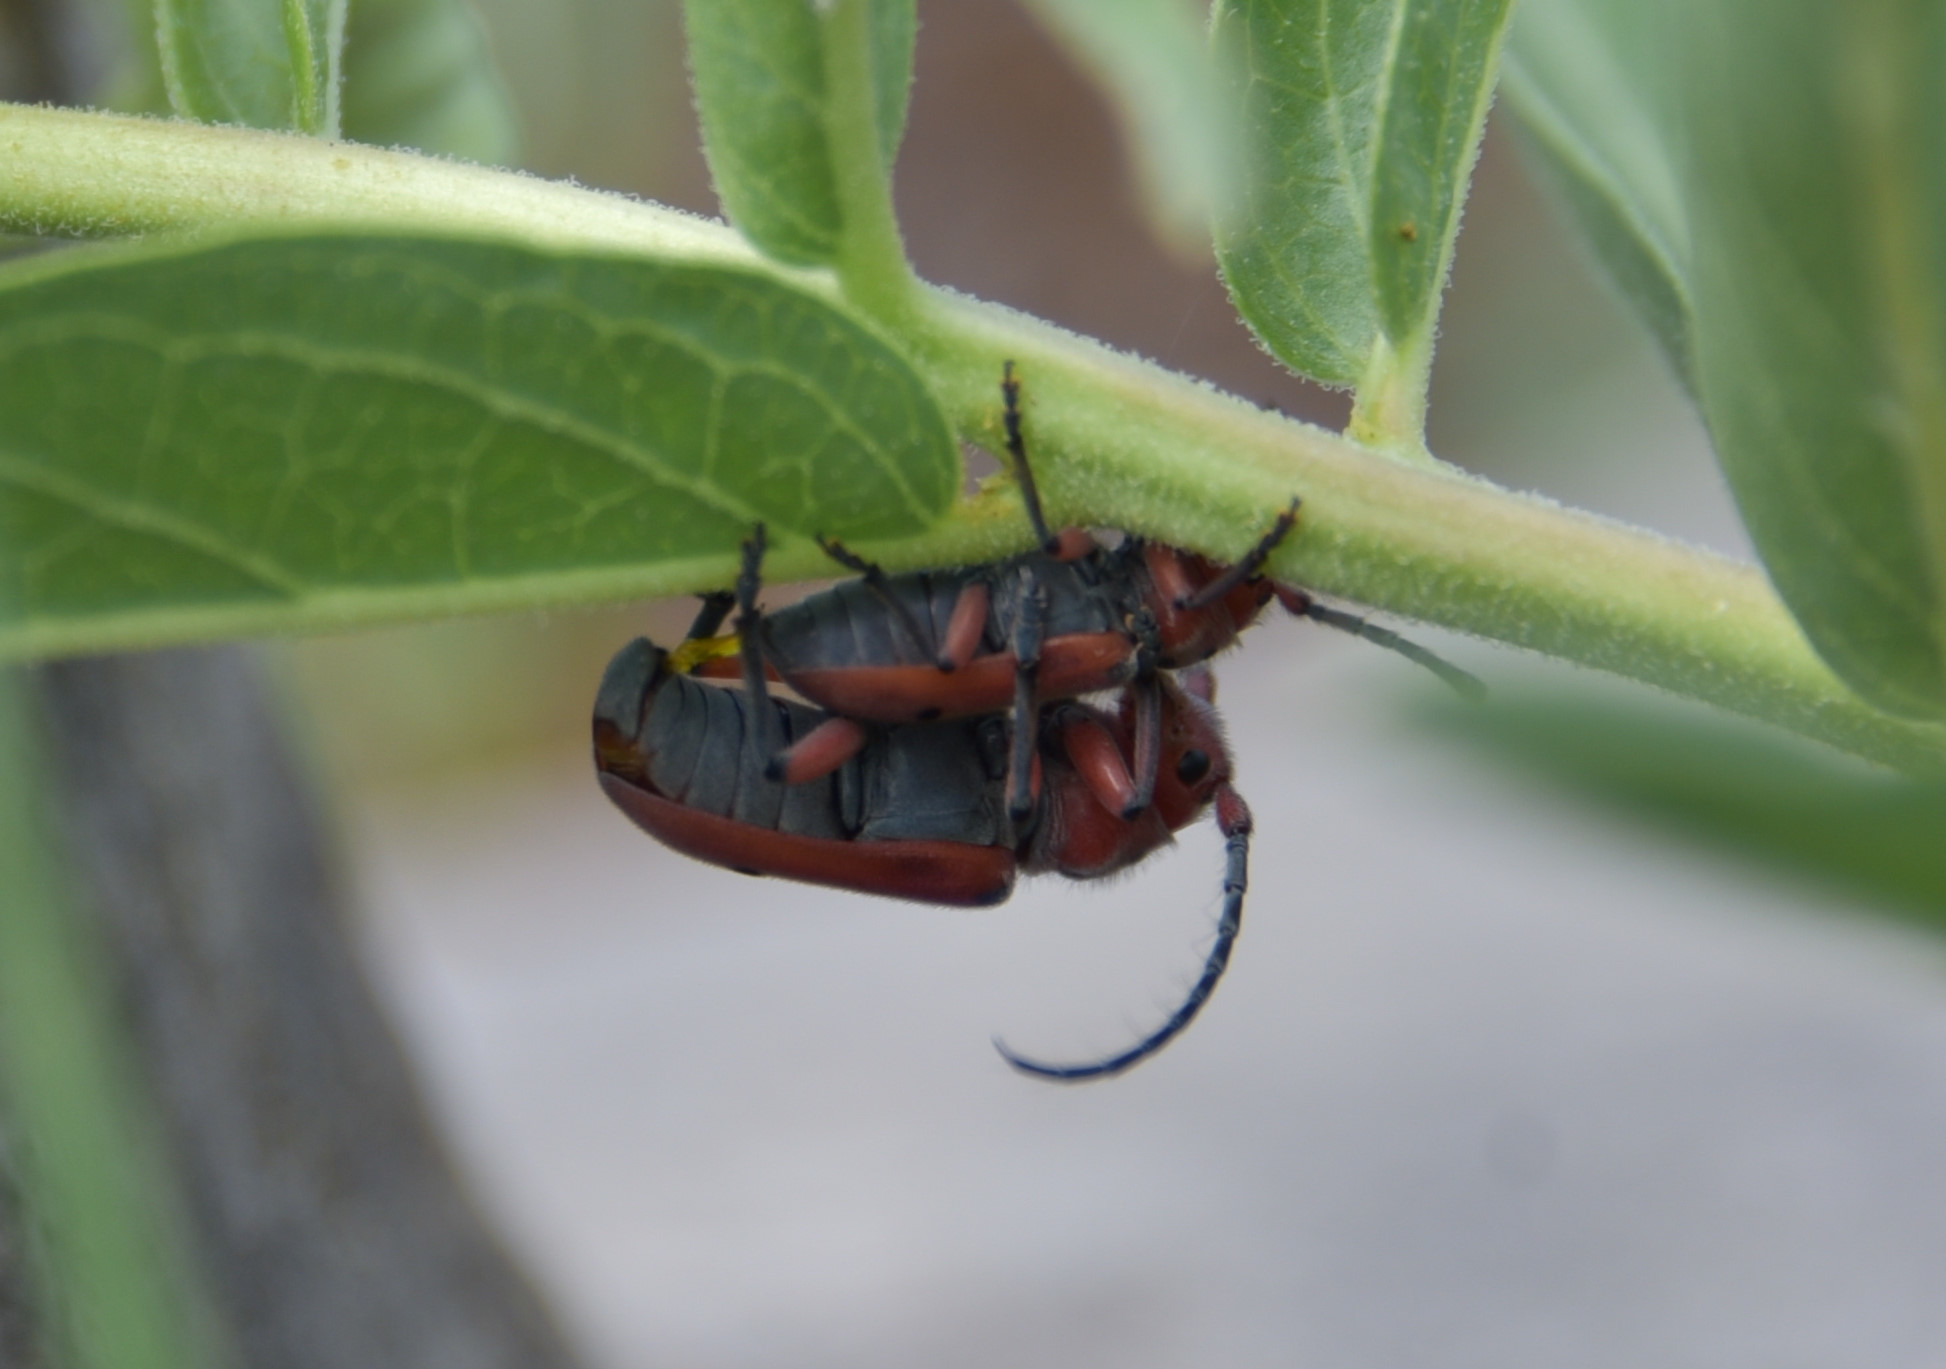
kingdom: Animalia
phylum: Arthropoda
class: Insecta
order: Coleoptera
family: Cerambycidae
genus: Tetraopes
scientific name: Tetraopes texanus
